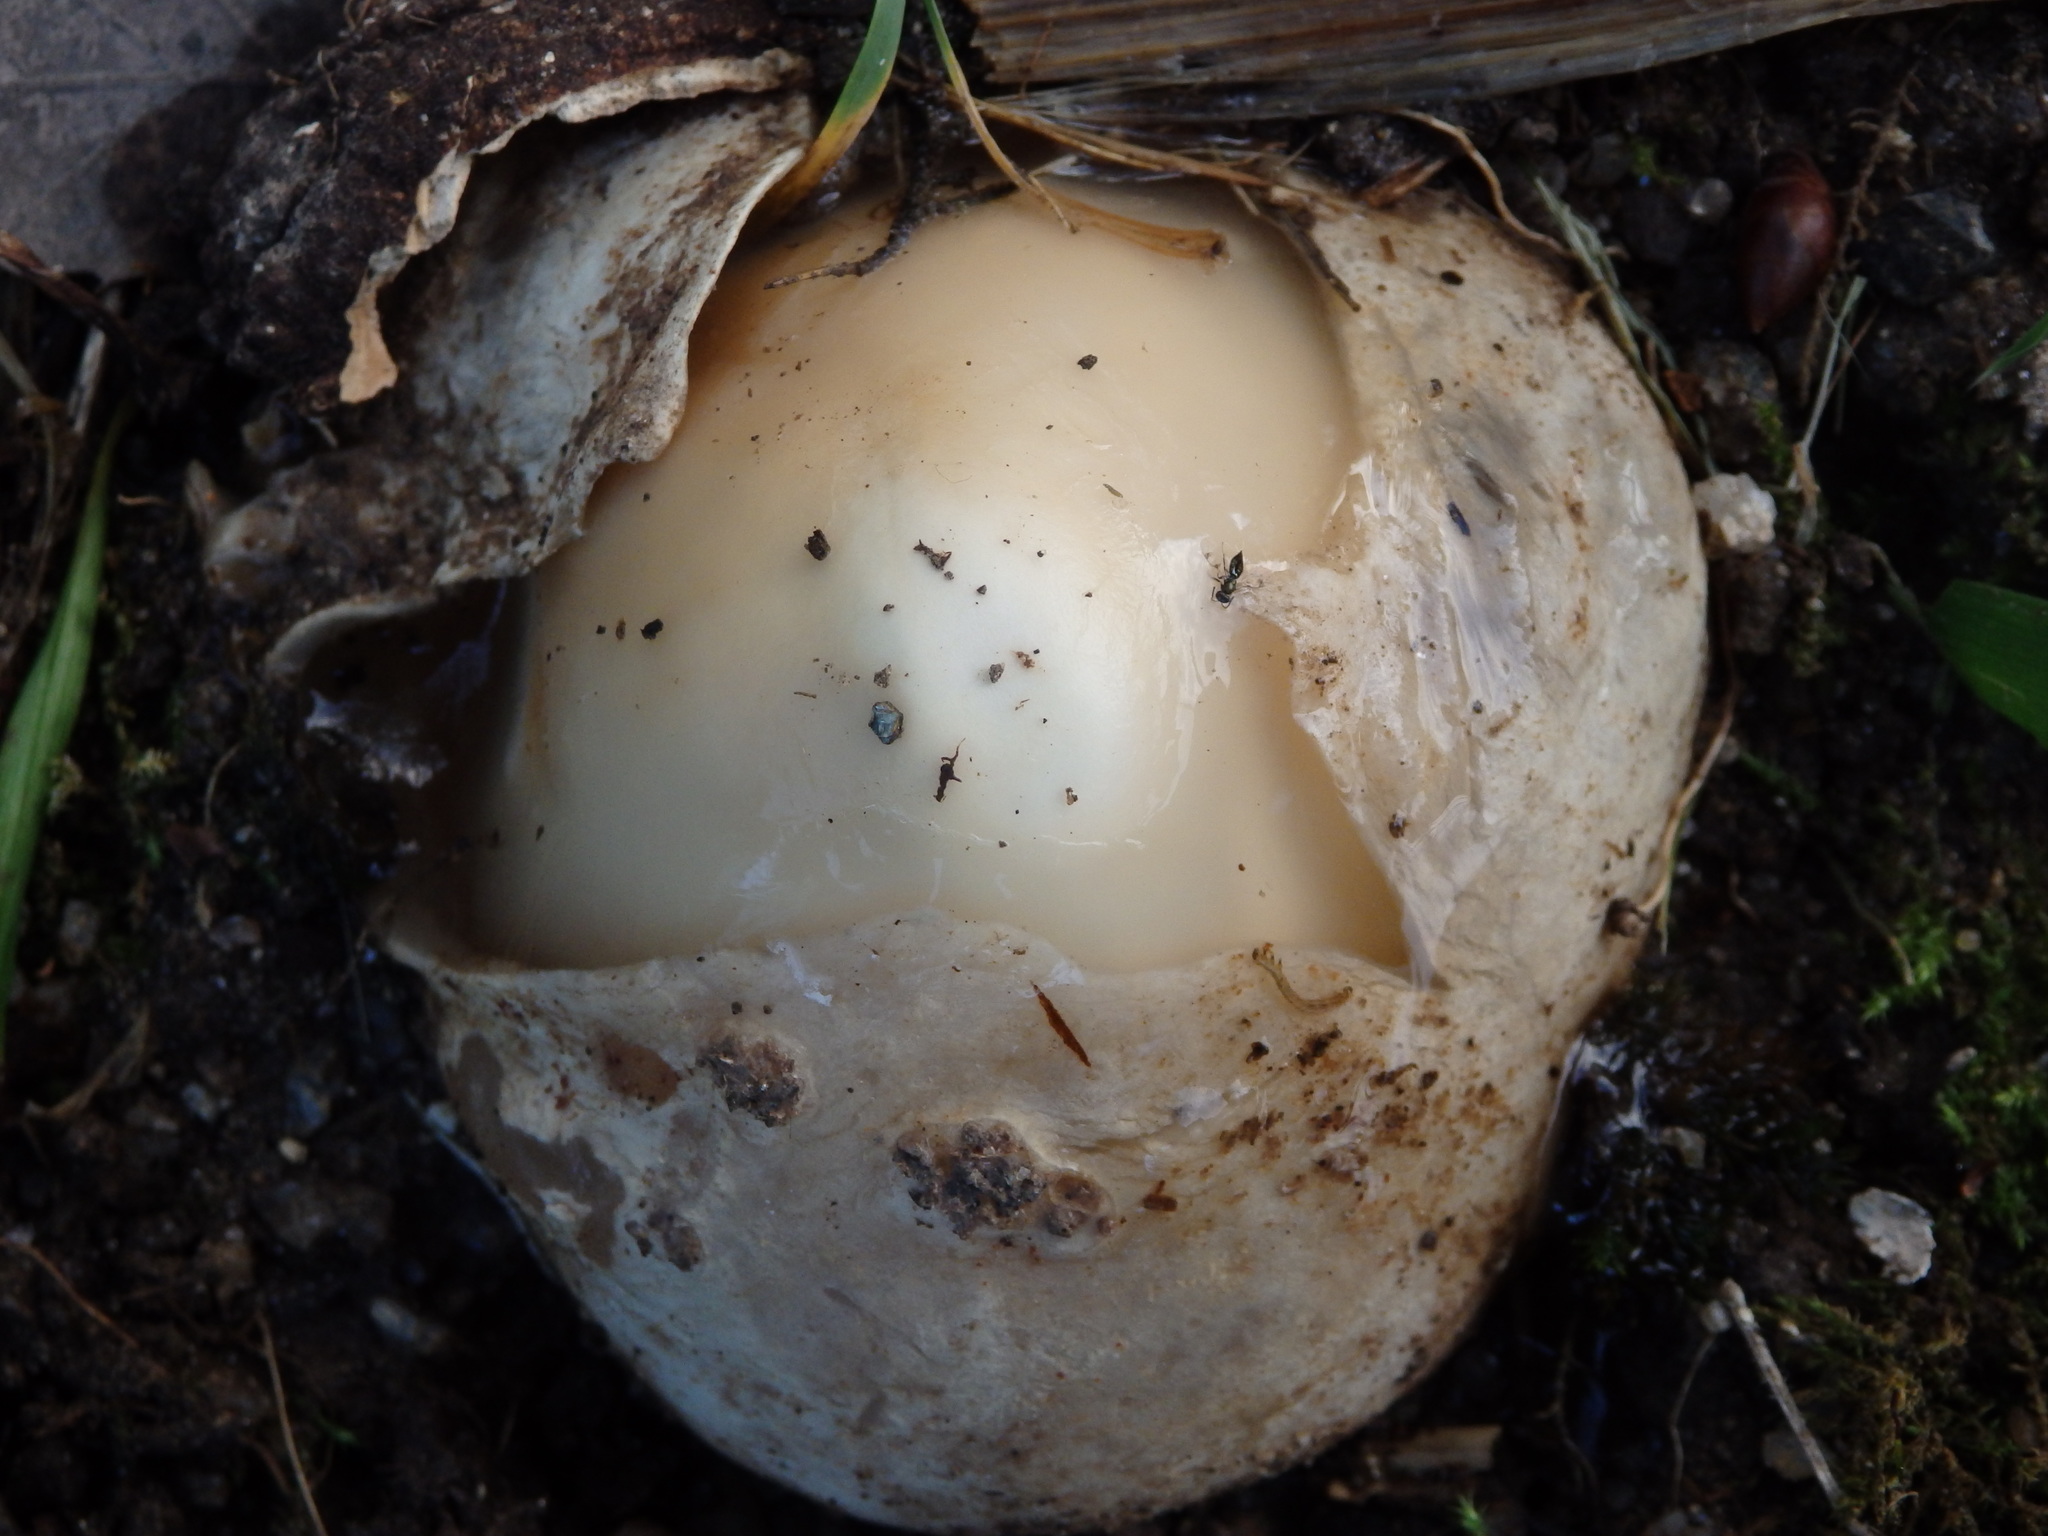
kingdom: Fungi
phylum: Basidiomycota
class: Agaricomycetes
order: Phallales
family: Phallaceae
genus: Phallus
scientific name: Phallus impudicus
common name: Common stinkhorn
